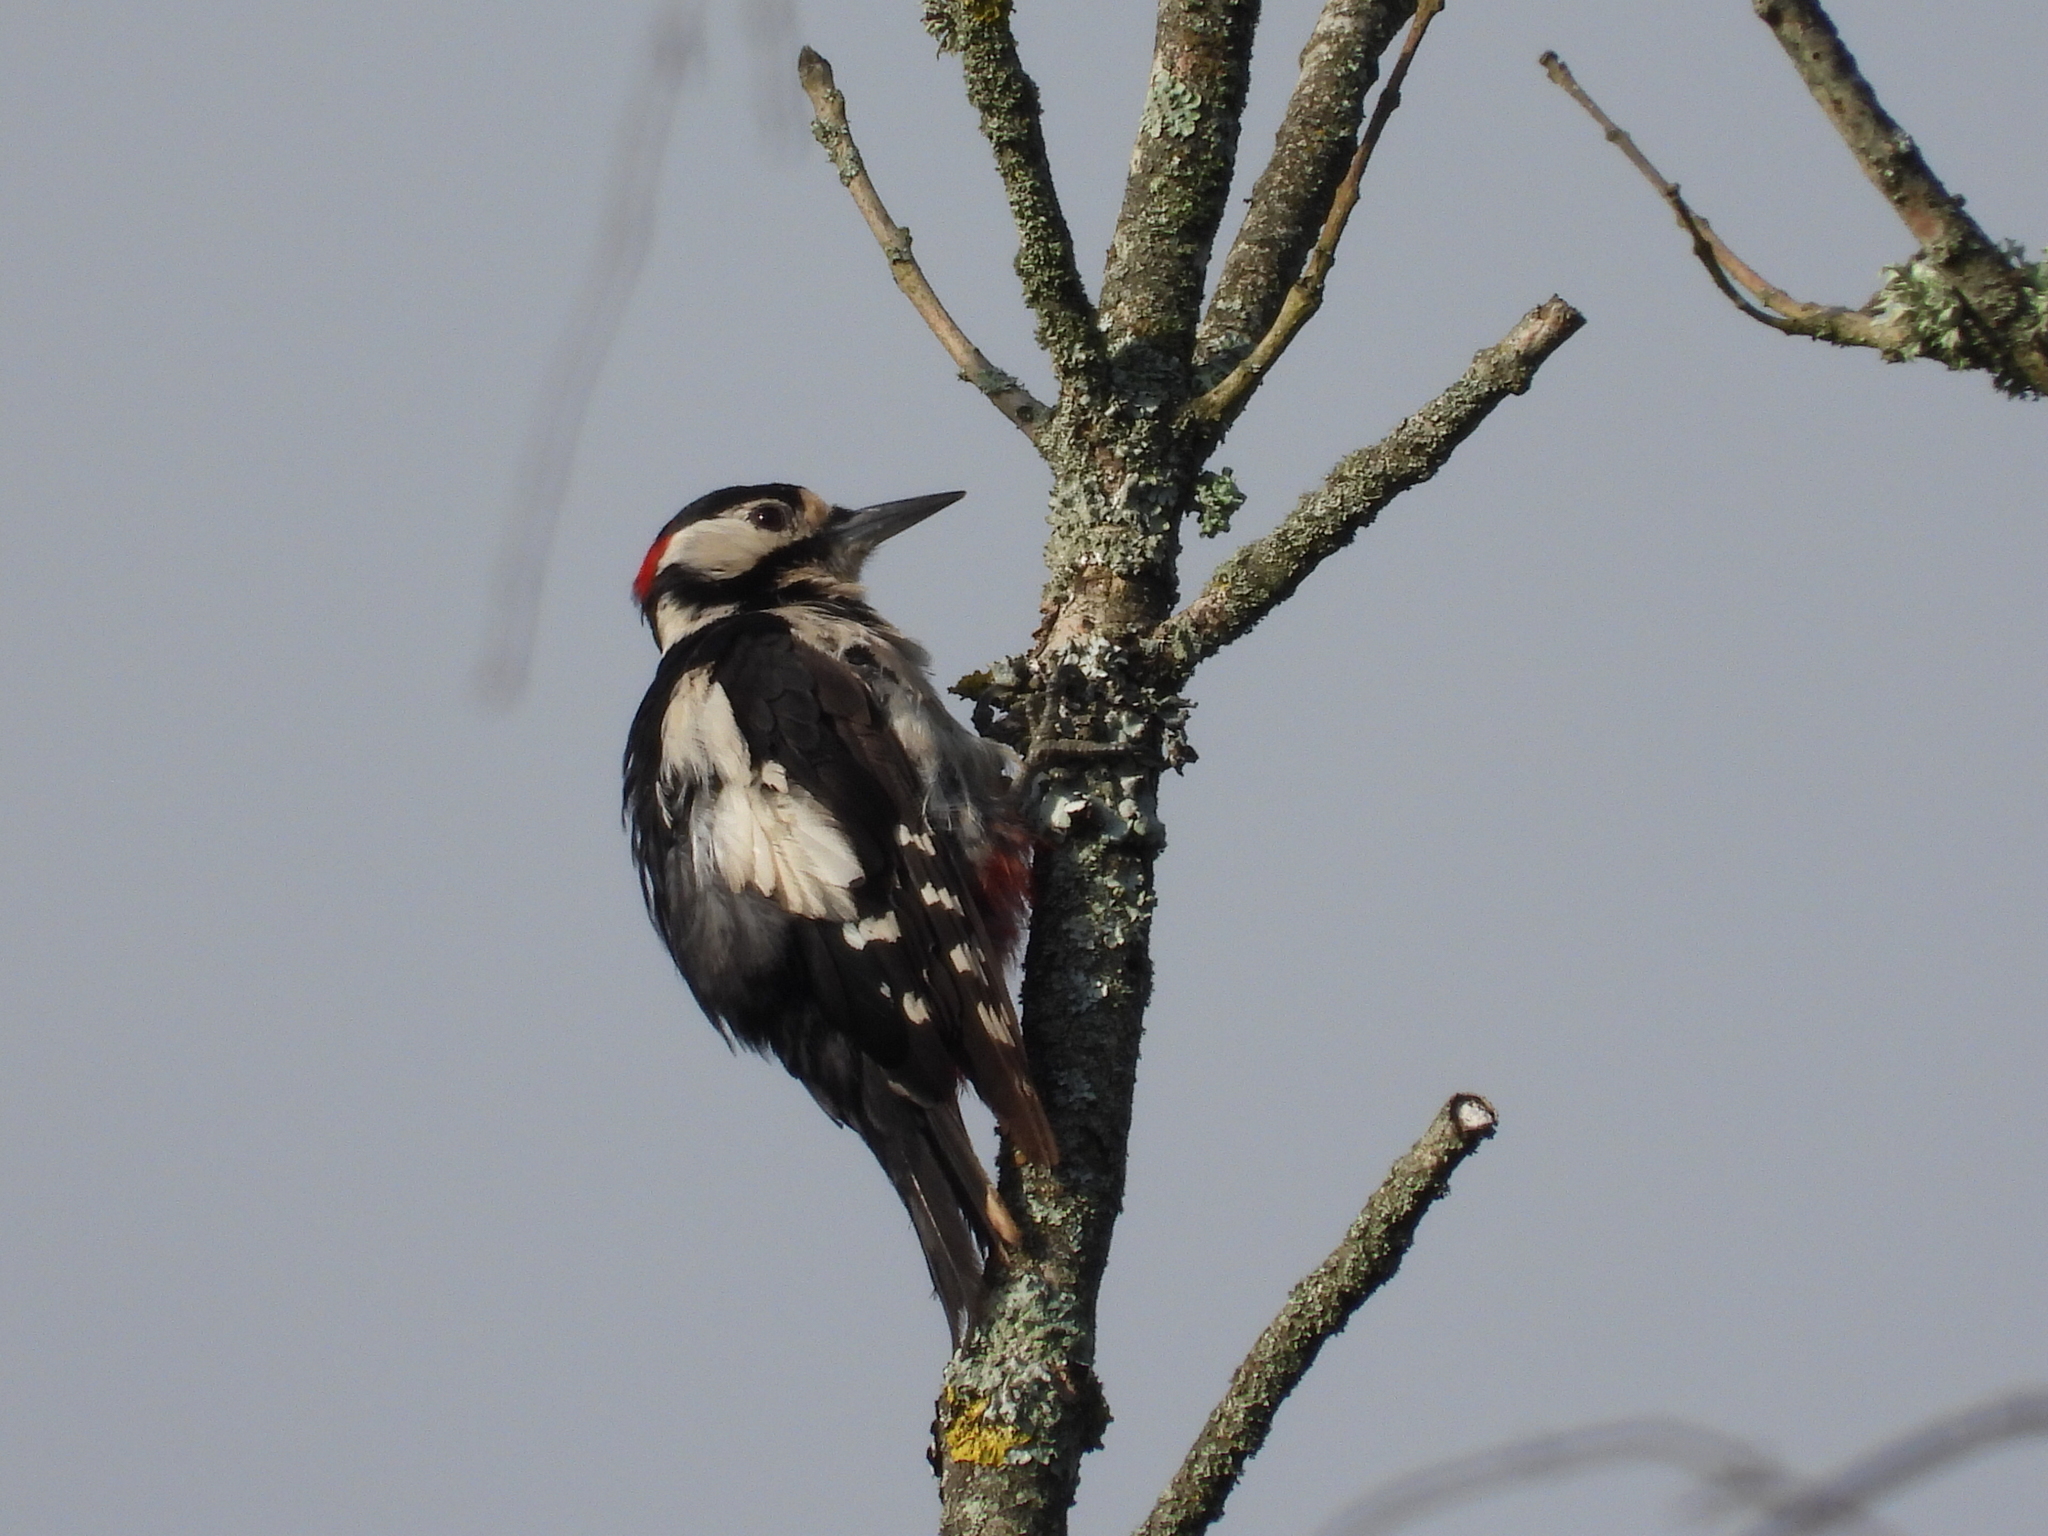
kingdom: Animalia
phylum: Chordata
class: Aves
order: Piciformes
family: Picidae
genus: Dendrocopos
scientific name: Dendrocopos major
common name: Great spotted woodpecker
